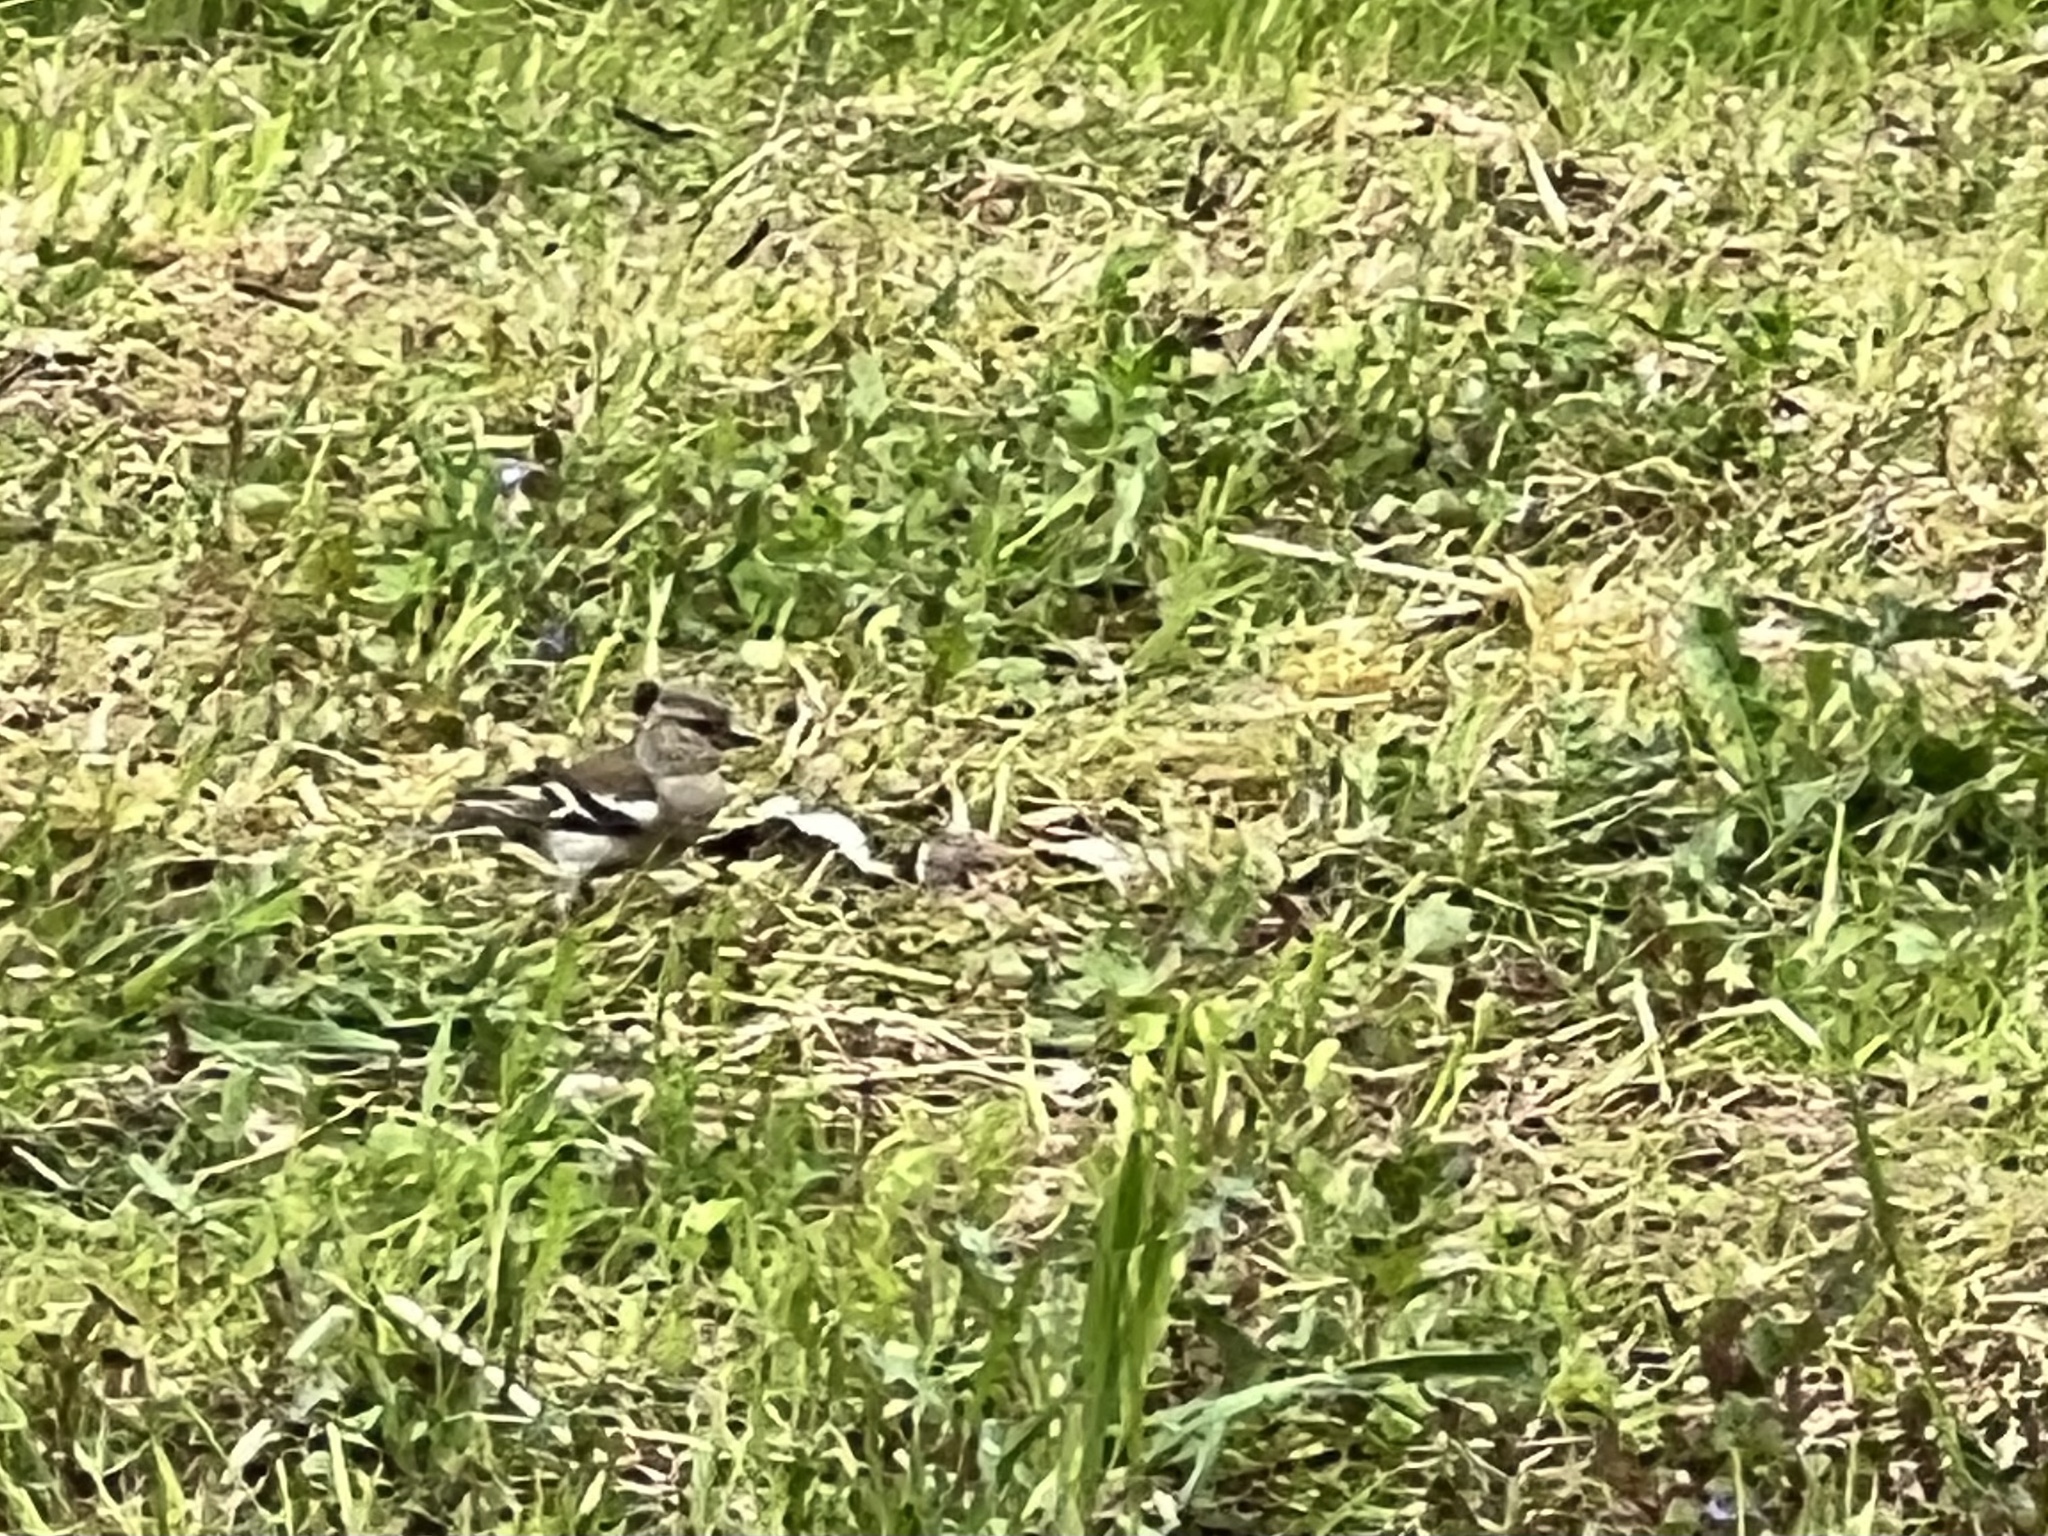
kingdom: Animalia
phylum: Chordata
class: Aves
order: Passeriformes
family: Fringillidae
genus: Fringilla
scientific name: Fringilla coelebs
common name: Common chaffinch
